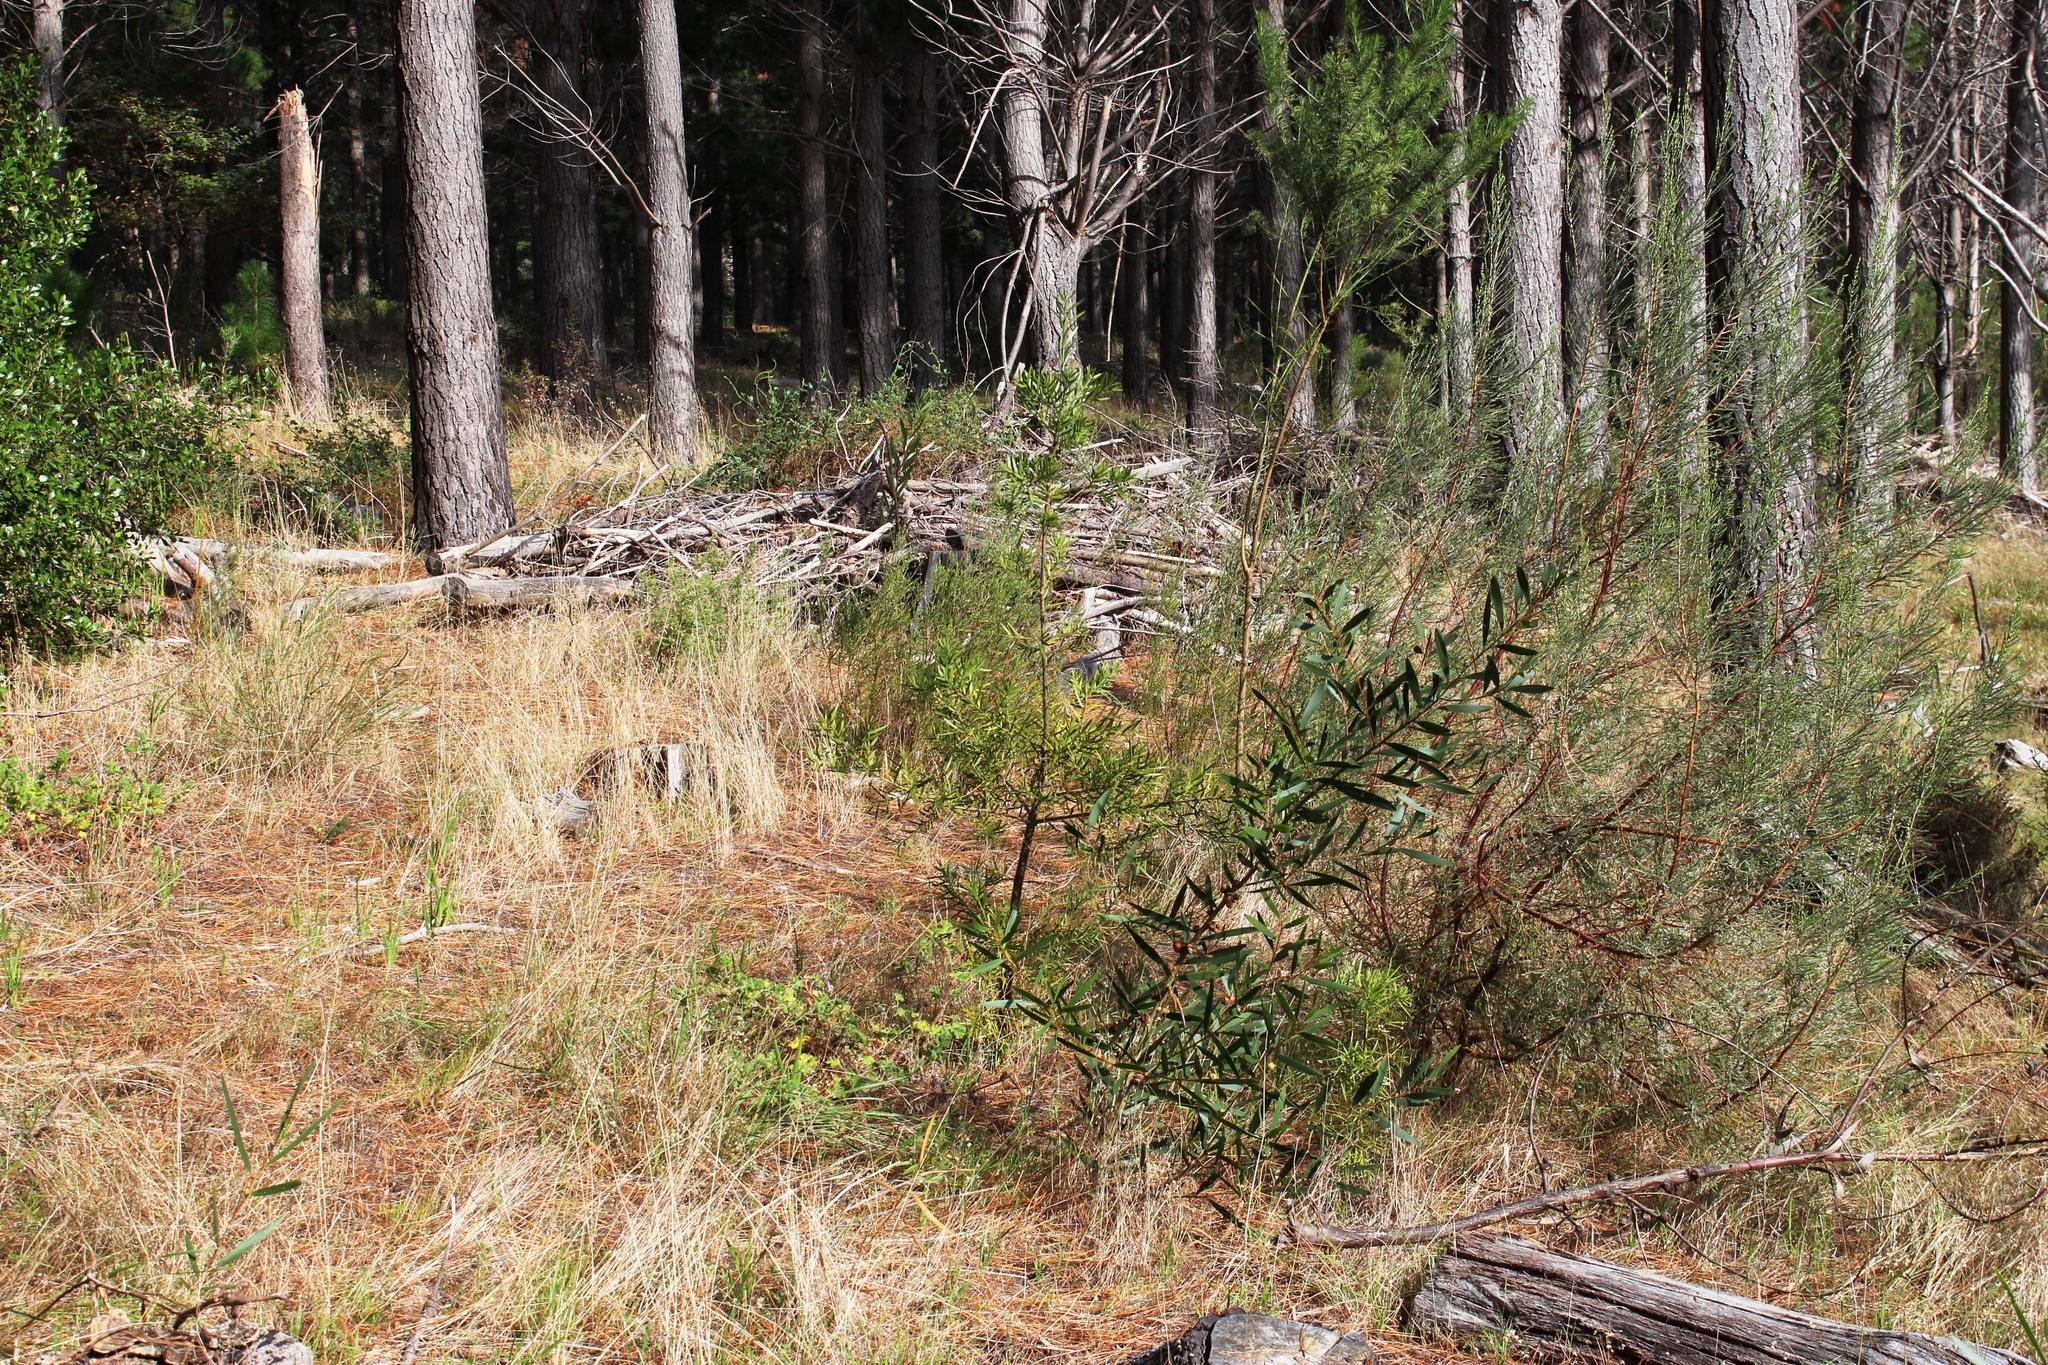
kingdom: Plantae
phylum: Tracheophyta
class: Pinopsida
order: Pinales
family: Podocarpaceae
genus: Afrocarpus
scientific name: Afrocarpus falcatus
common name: Bastard yellowwood
